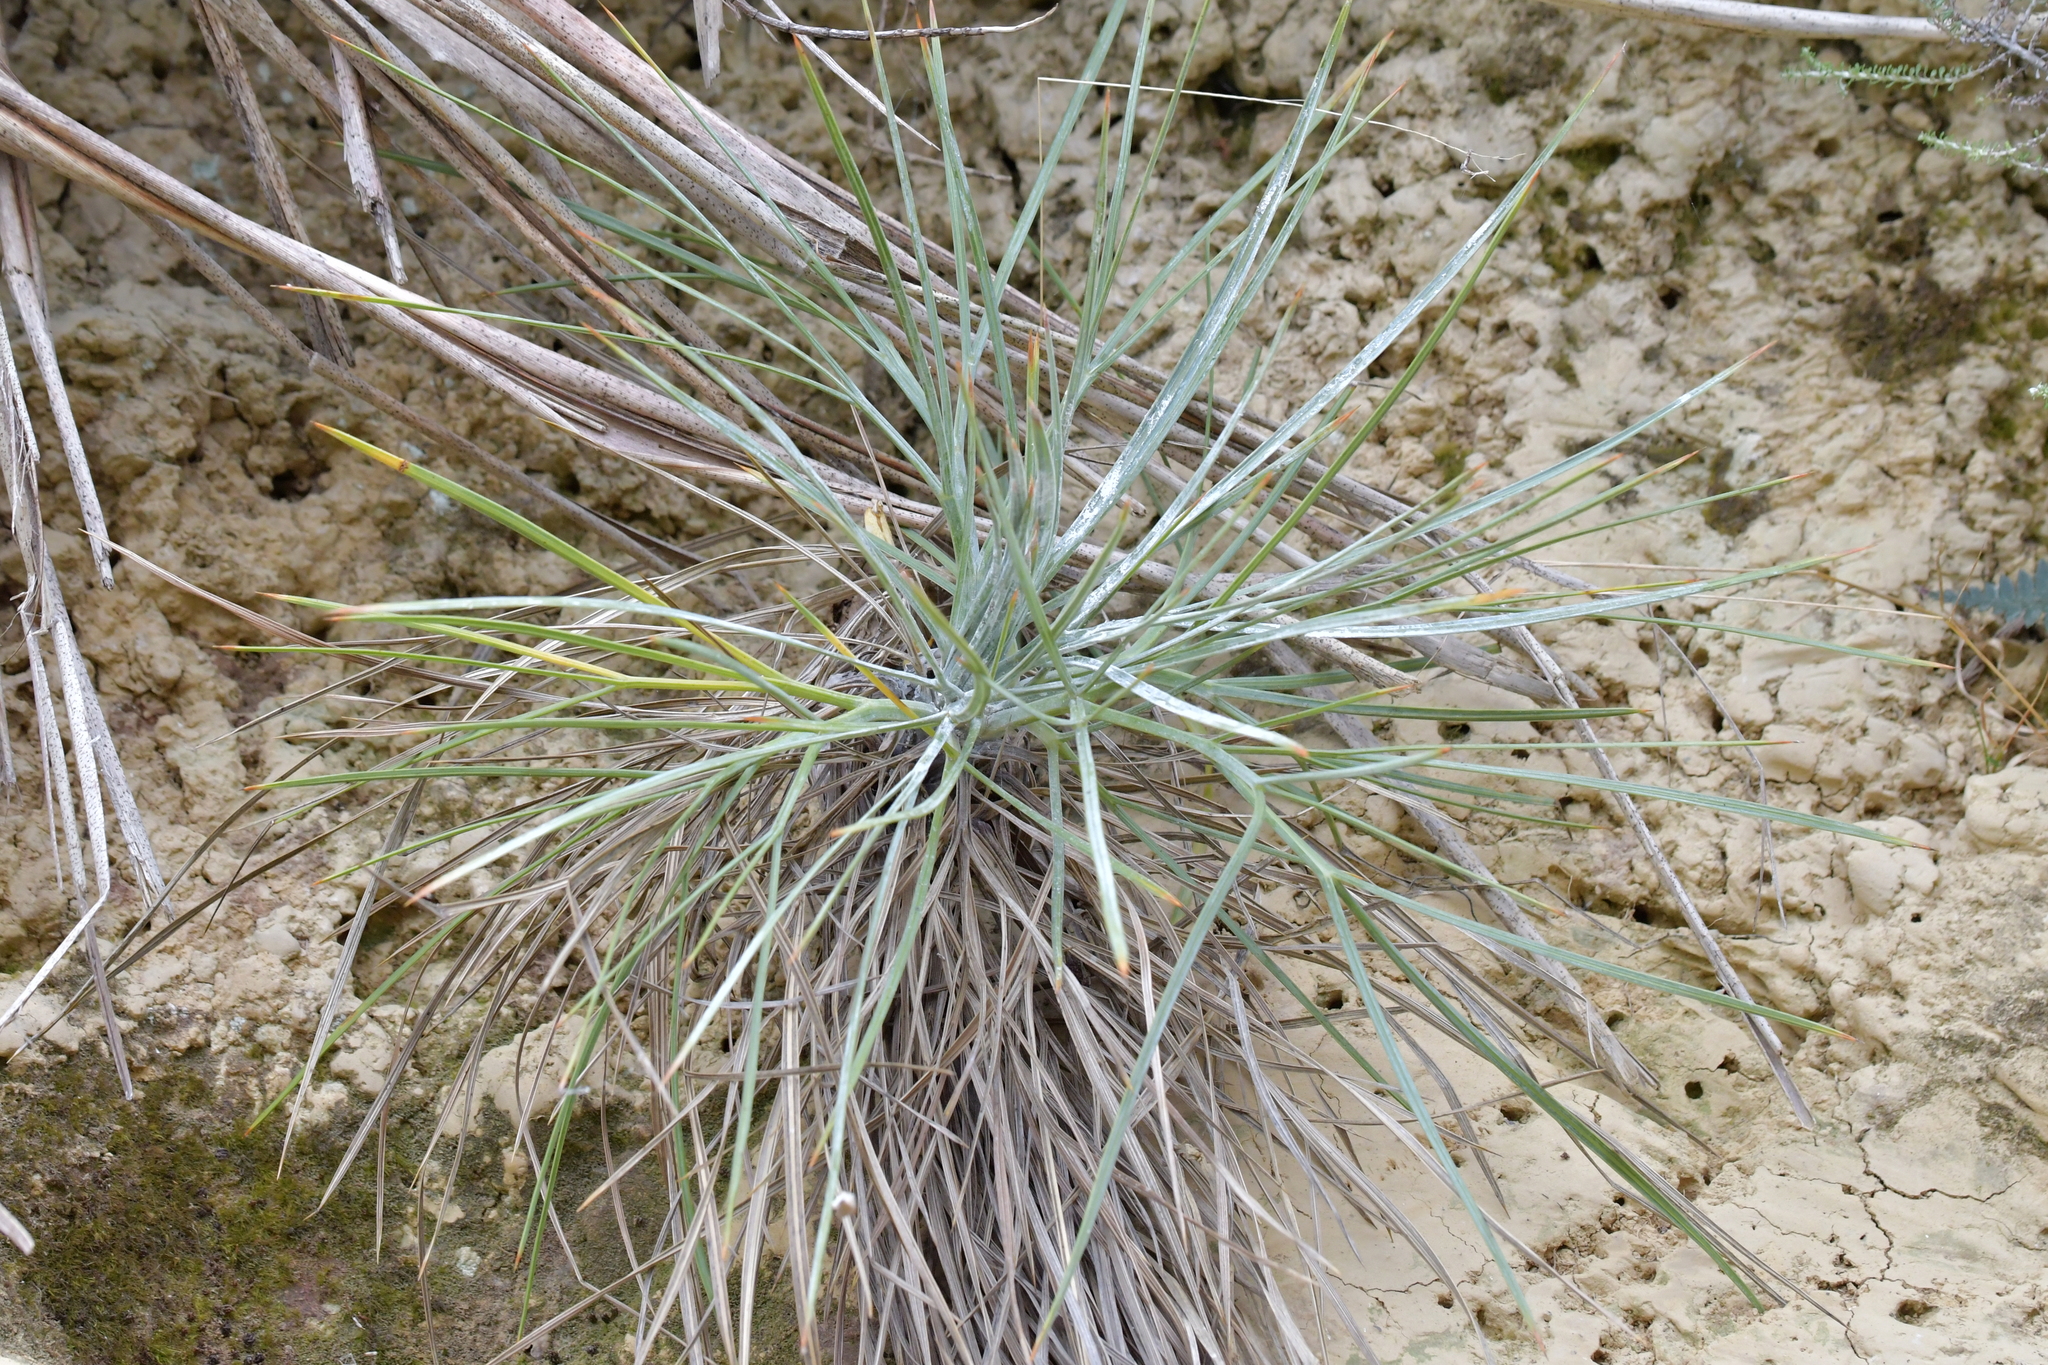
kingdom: Plantae
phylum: Tracheophyta
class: Magnoliopsida
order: Apiales
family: Apiaceae
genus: Aciphylla
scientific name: Aciphylla squarrosa
